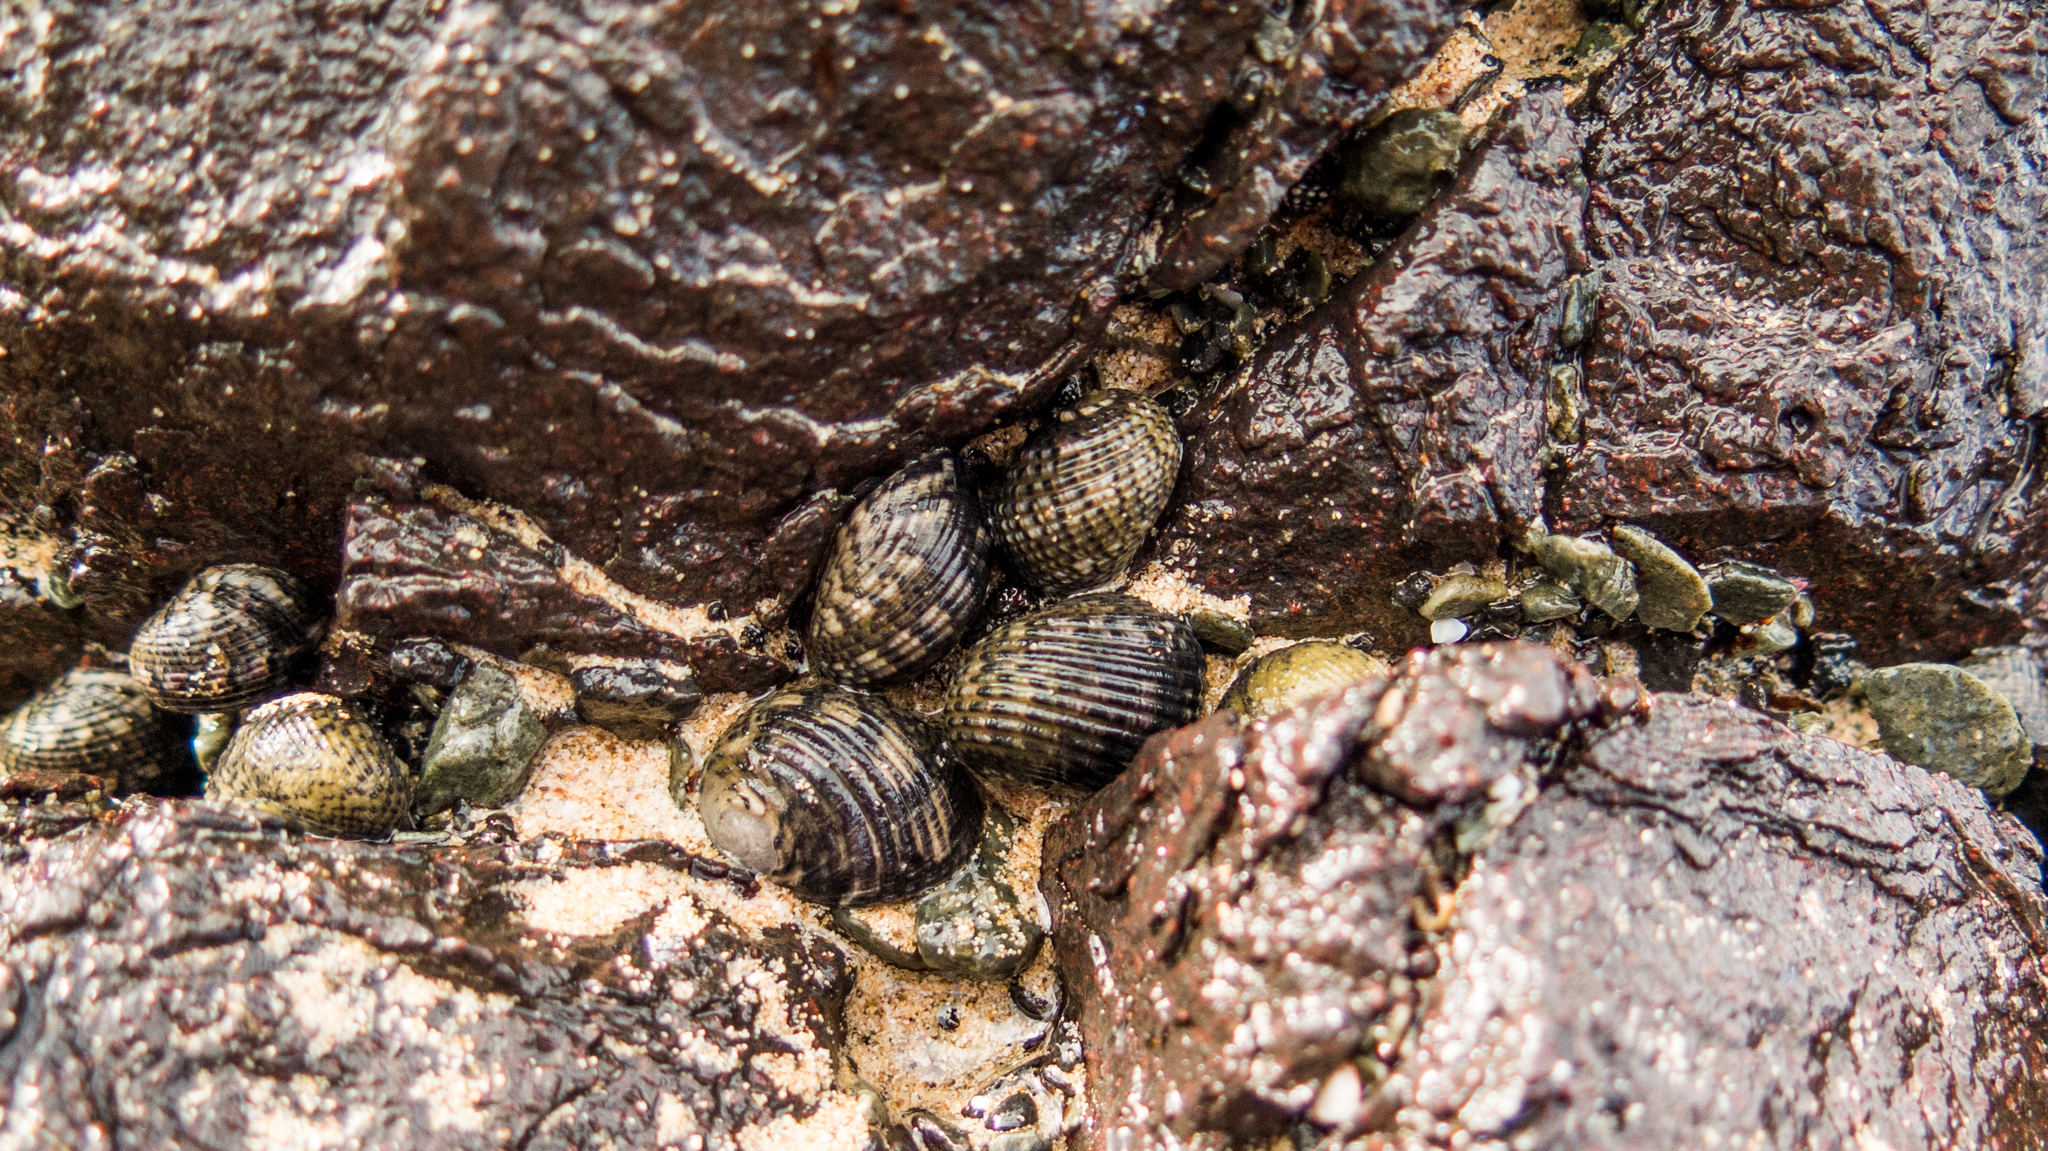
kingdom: Animalia
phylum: Mollusca
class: Gastropoda
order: Cycloneritida
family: Neritidae
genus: Nerita
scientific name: Nerita chlorostoma
